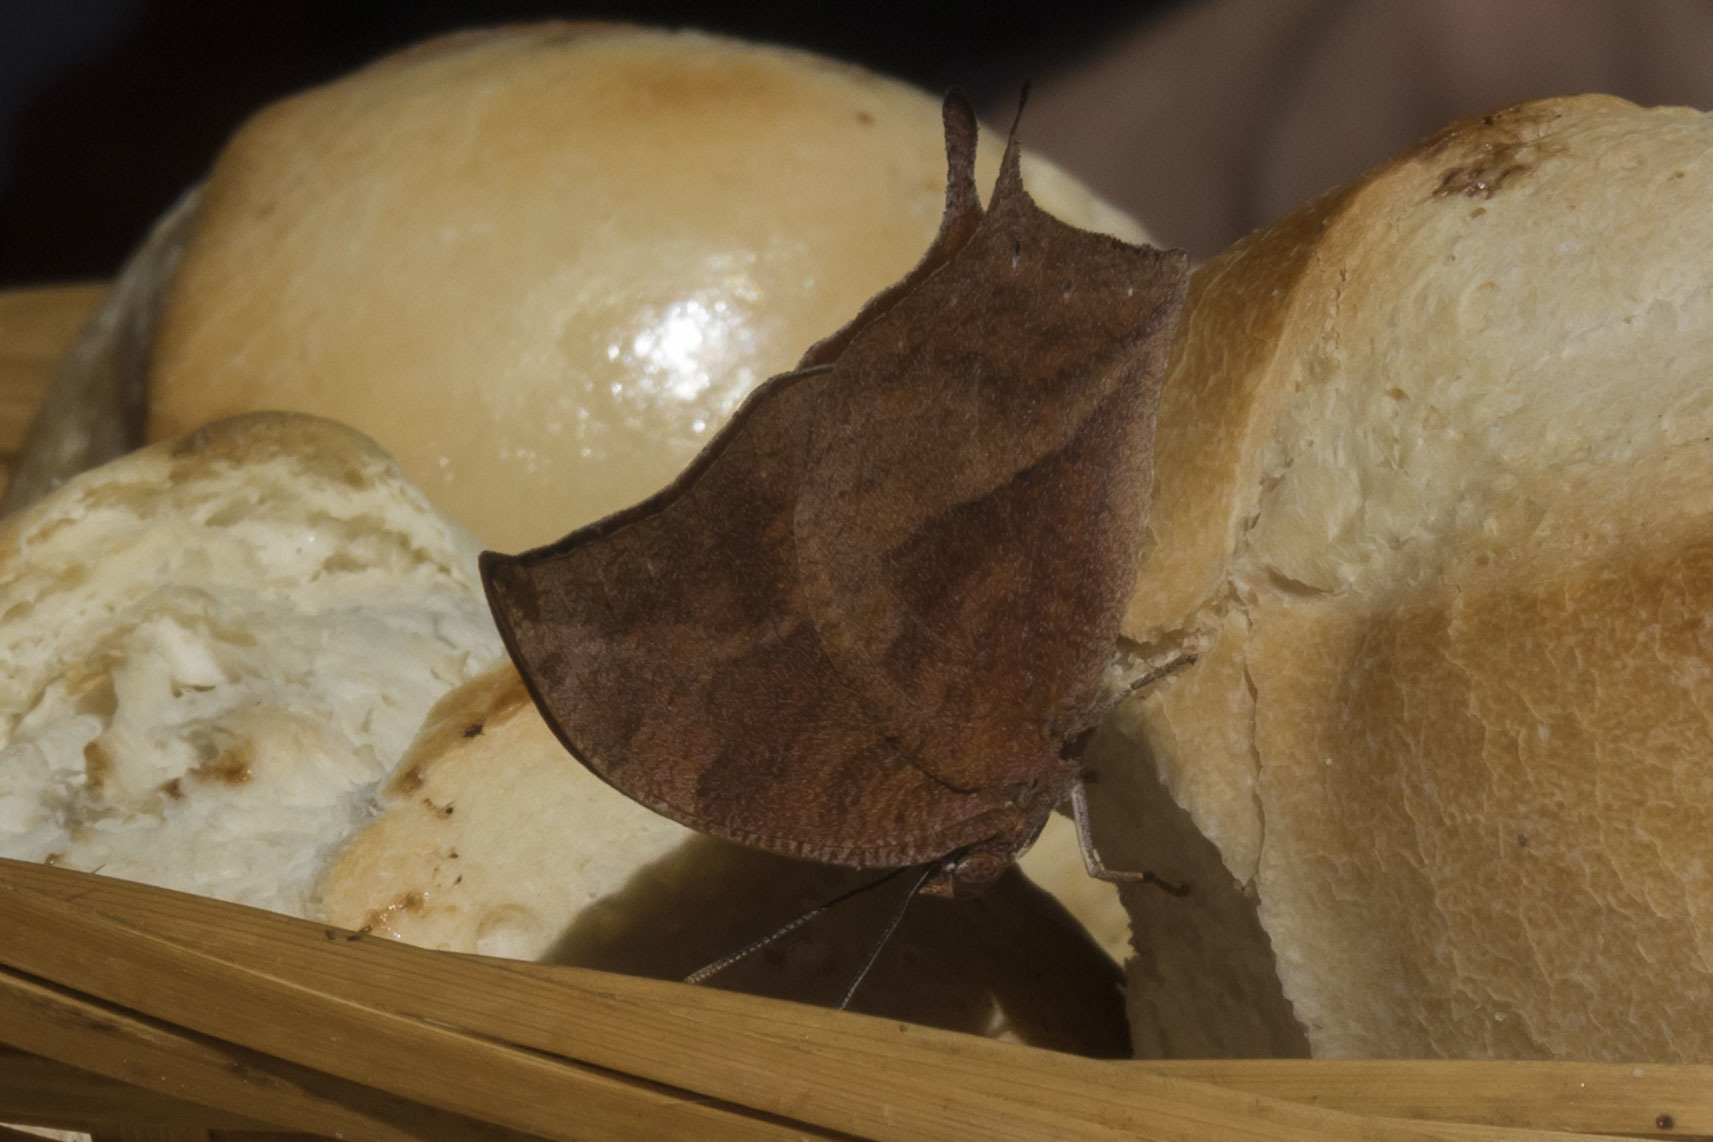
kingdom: Animalia
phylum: Arthropoda
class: Insecta
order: Lepidoptera
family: Nymphalidae
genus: Fountainea
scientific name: Fountainea
